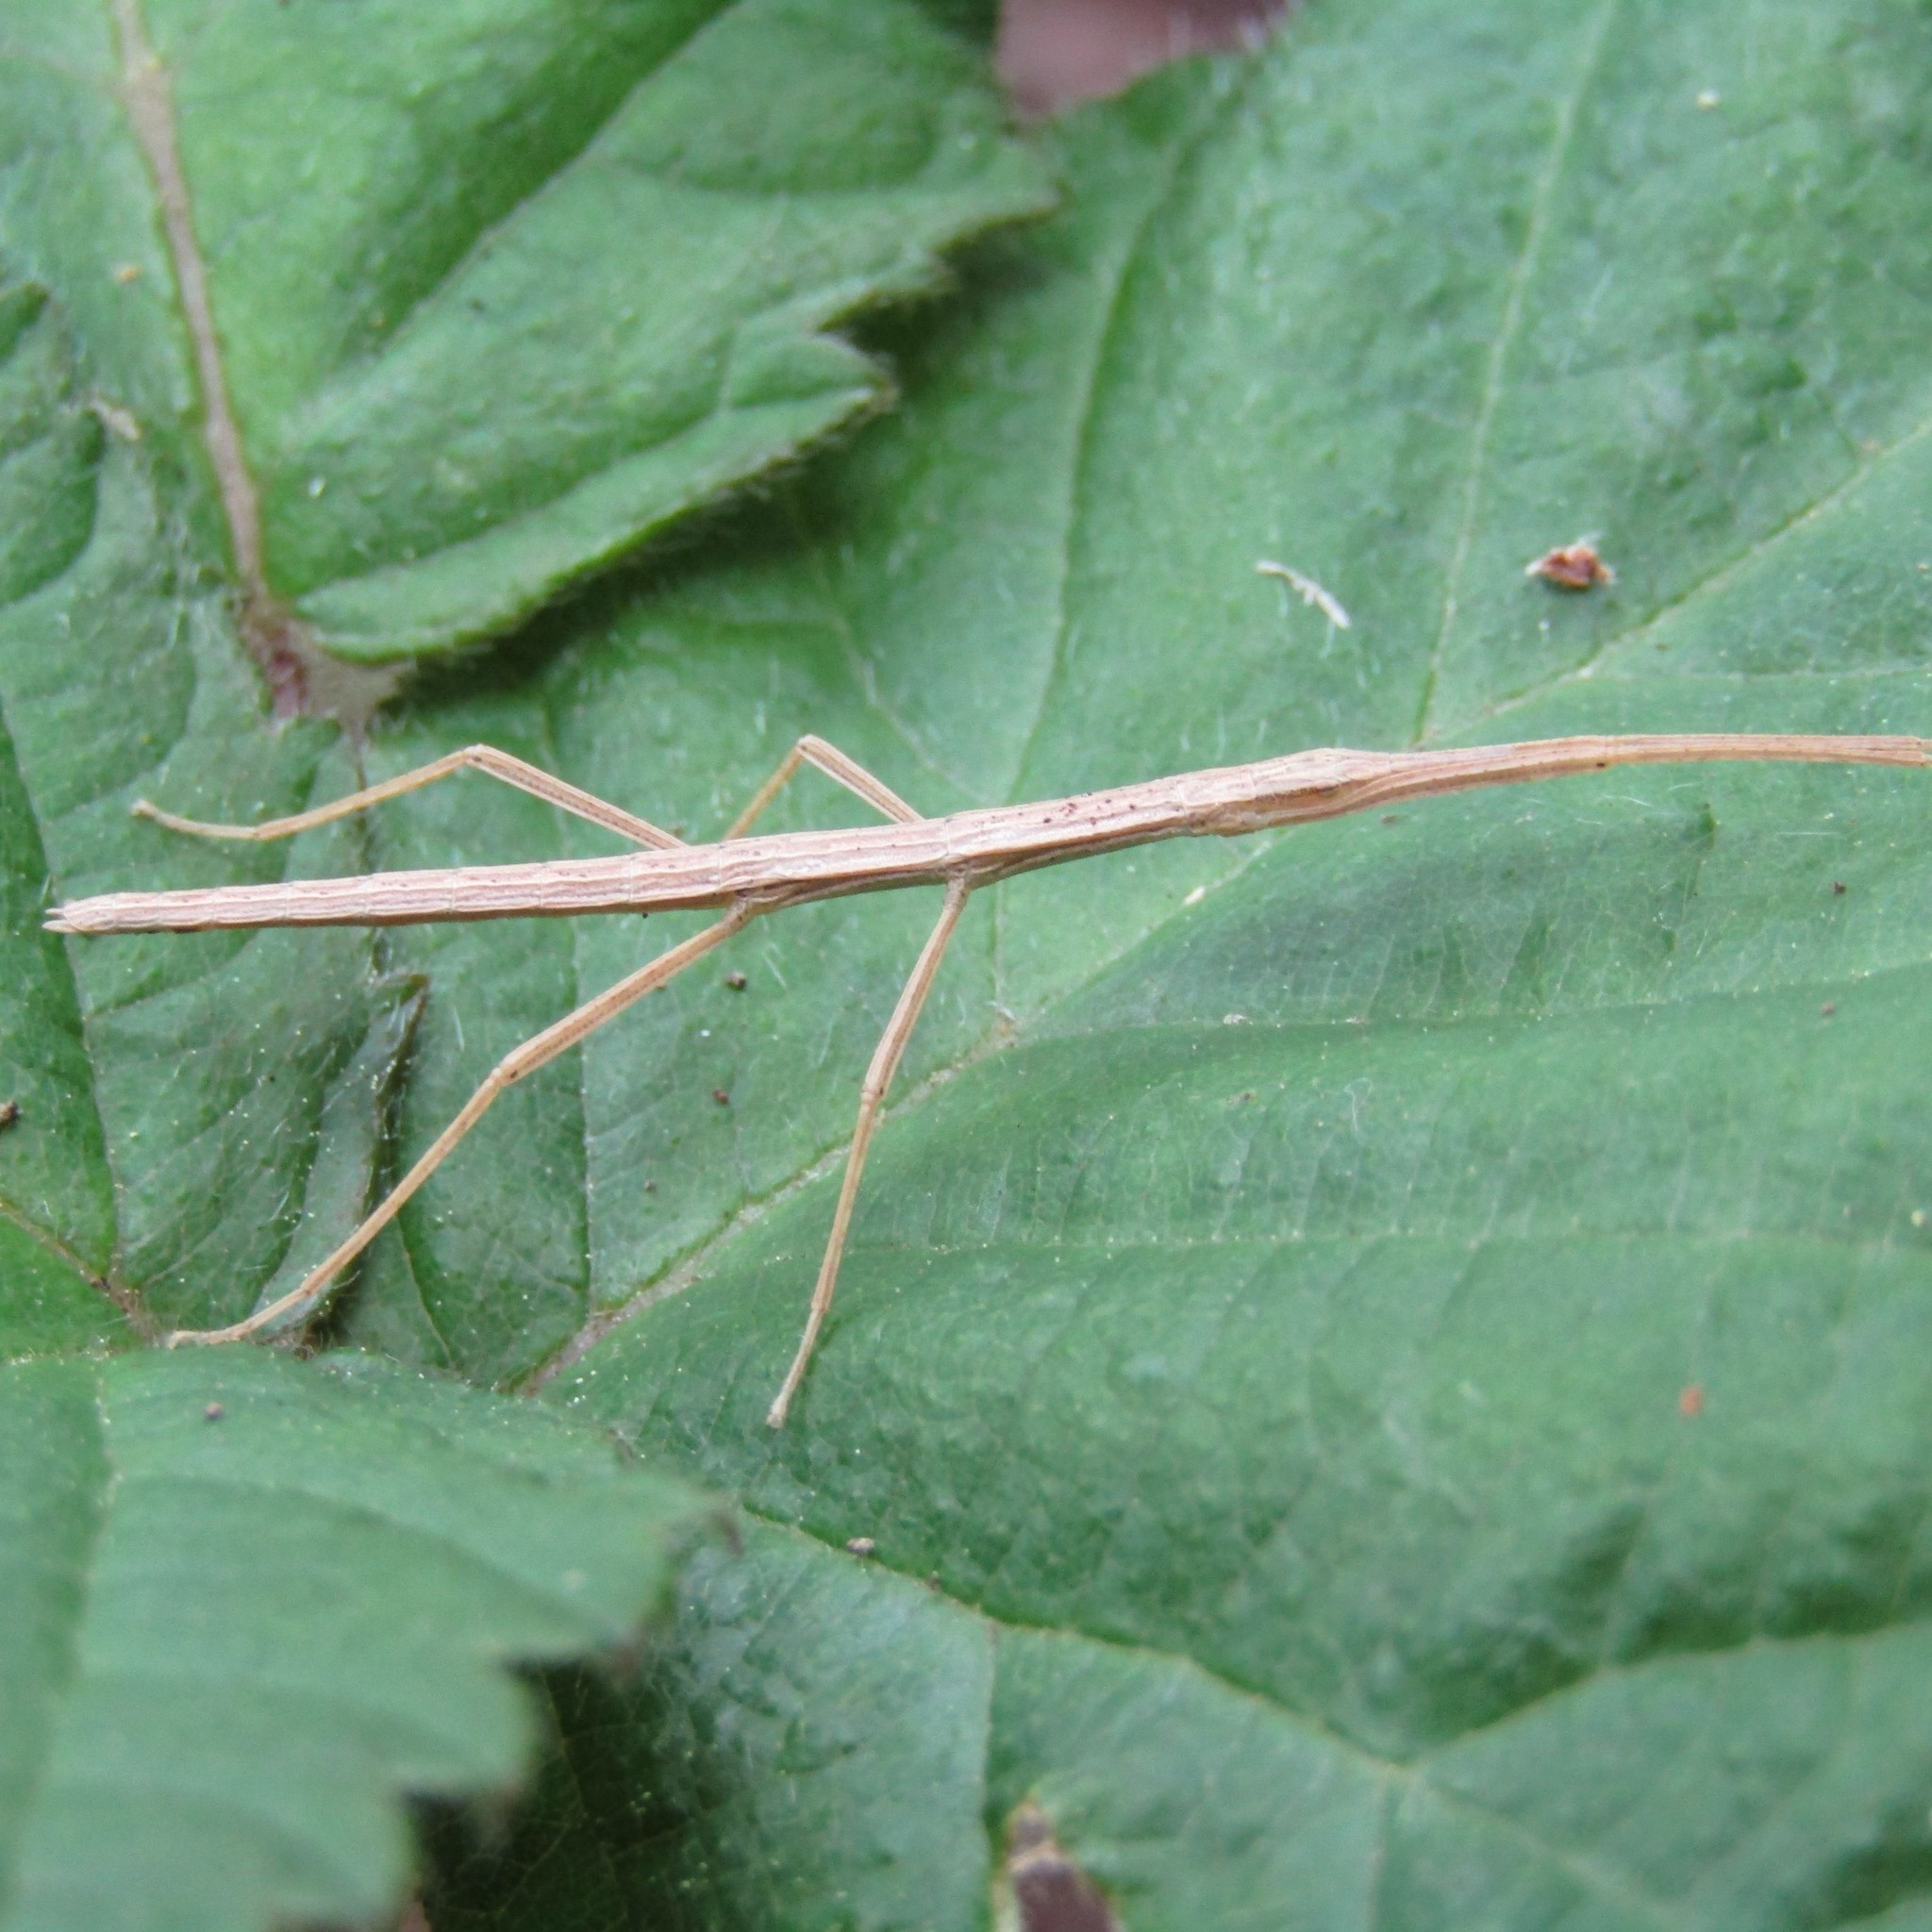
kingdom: Animalia
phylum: Arthropoda
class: Insecta
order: Phasmida
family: Phasmatidae
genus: Tectarchus
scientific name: Tectarchus huttoni
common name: The common ridge-backed stick insect
